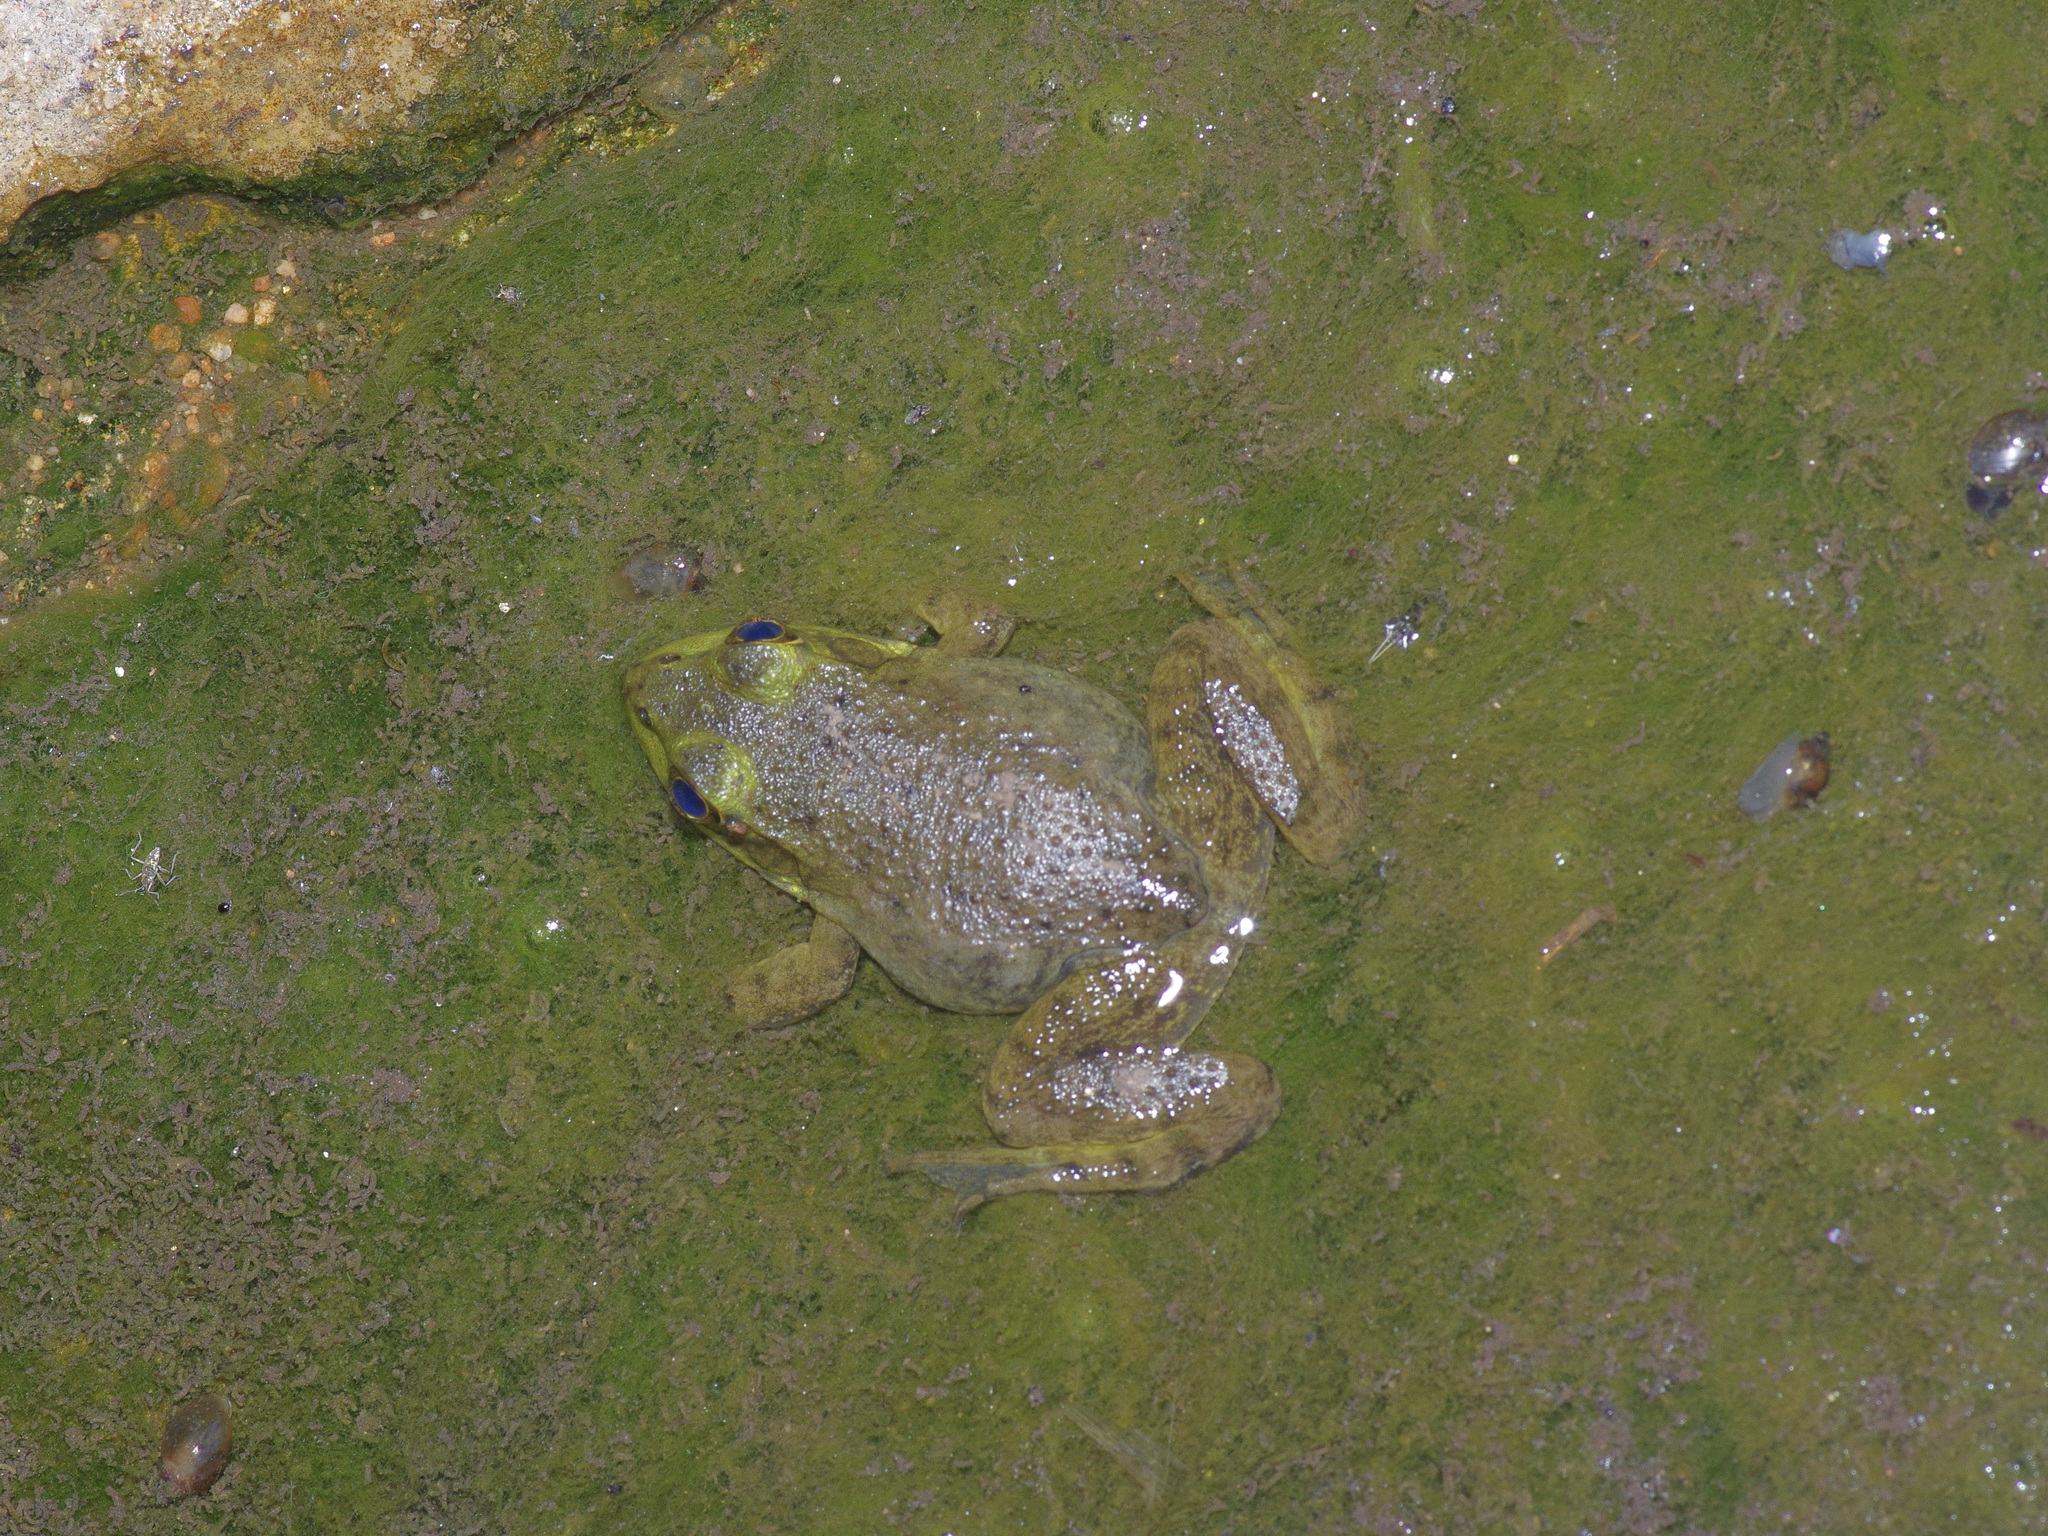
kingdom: Animalia
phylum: Chordata
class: Amphibia
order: Anura
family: Ranidae
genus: Lithobates
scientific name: Lithobates catesbeianus
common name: American bullfrog
